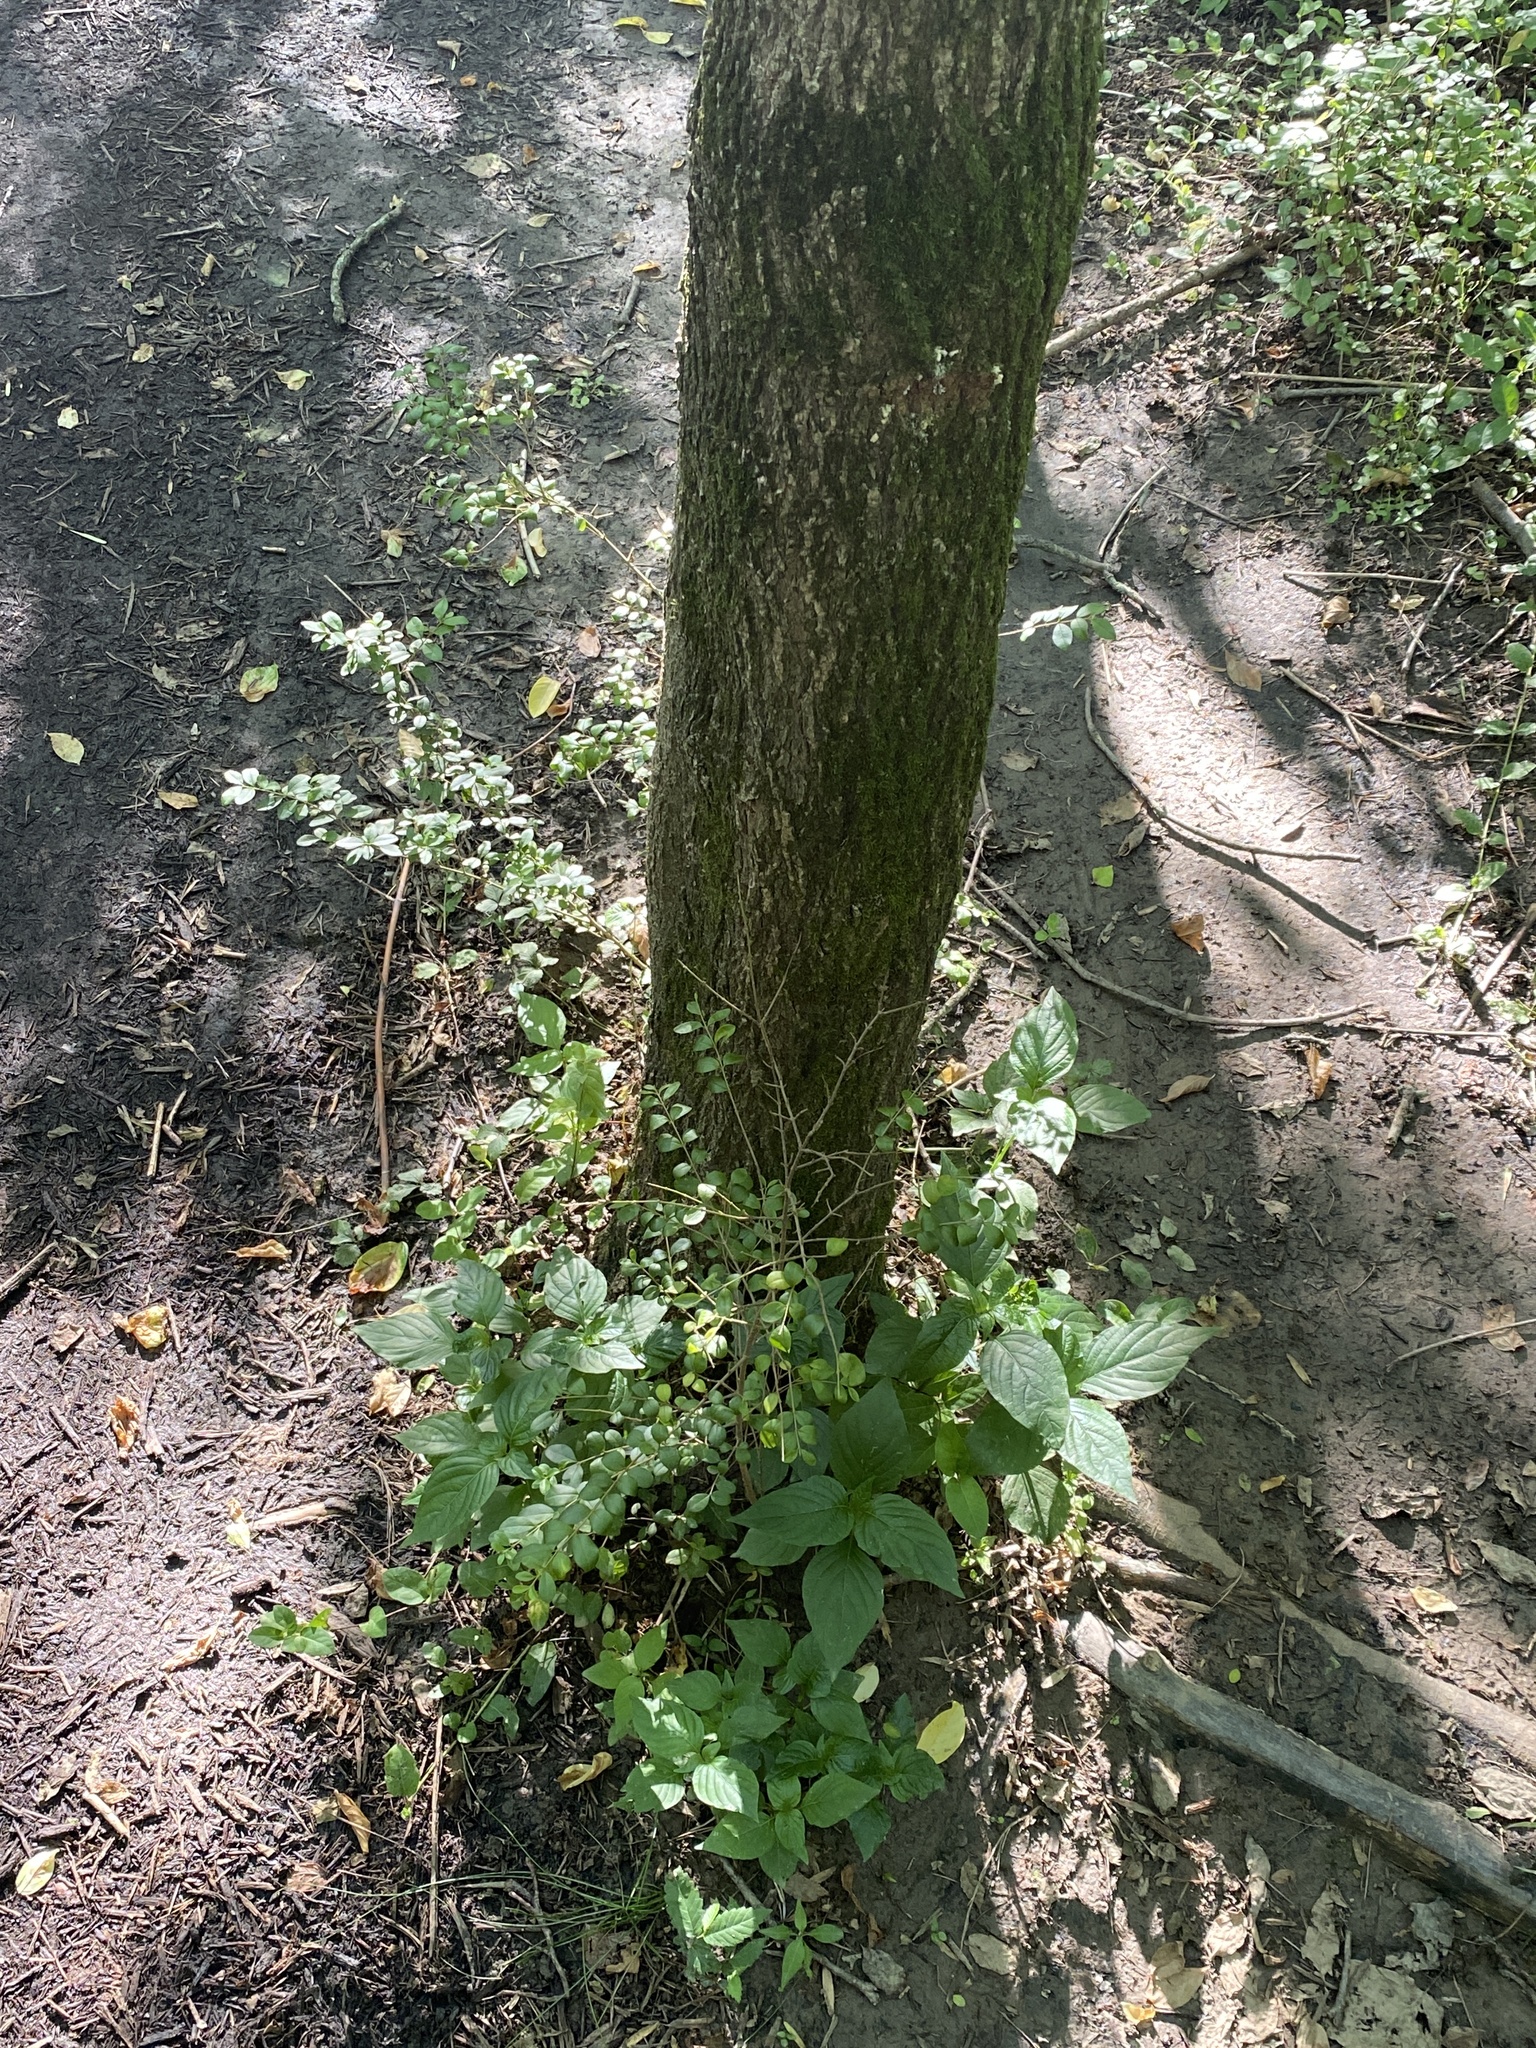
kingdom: Plantae
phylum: Tracheophyta
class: Magnoliopsida
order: Caryophyllales
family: Amaranthaceae
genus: Achyranthes
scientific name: Achyranthes bidentata
